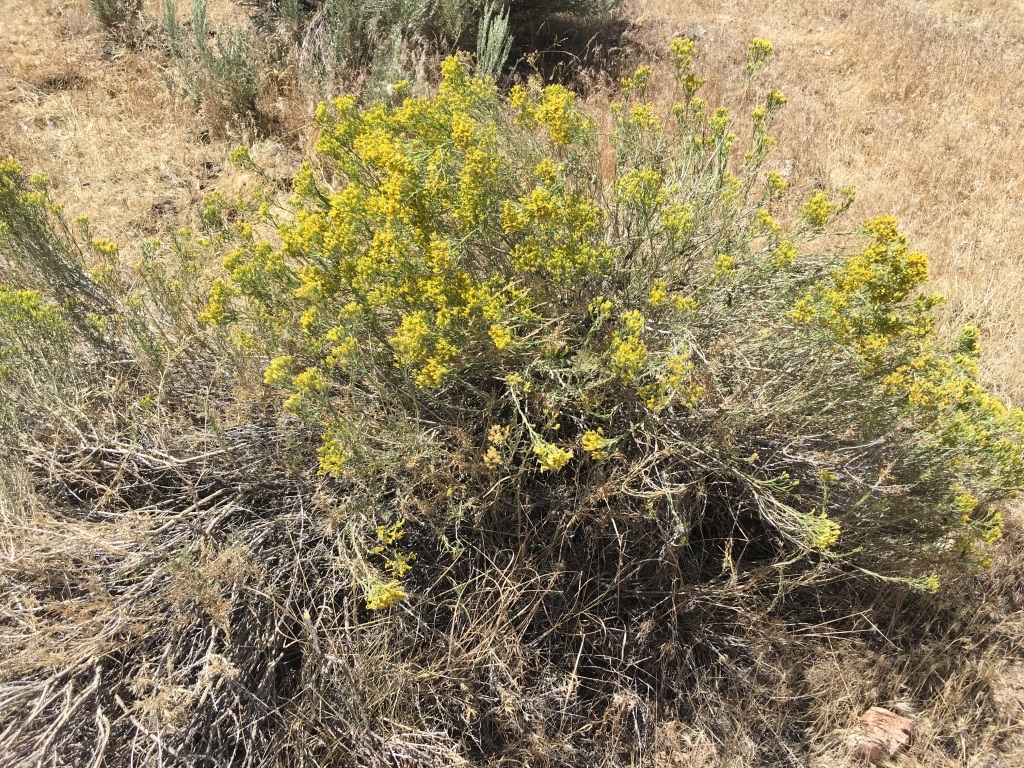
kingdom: Plantae
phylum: Tracheophyta
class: Magnoliopsida
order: Asterales
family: Asteraceae
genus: Chrysothamnus
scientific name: Chrysothamnus viscidiflorus
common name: Yellow rabbitbrush
